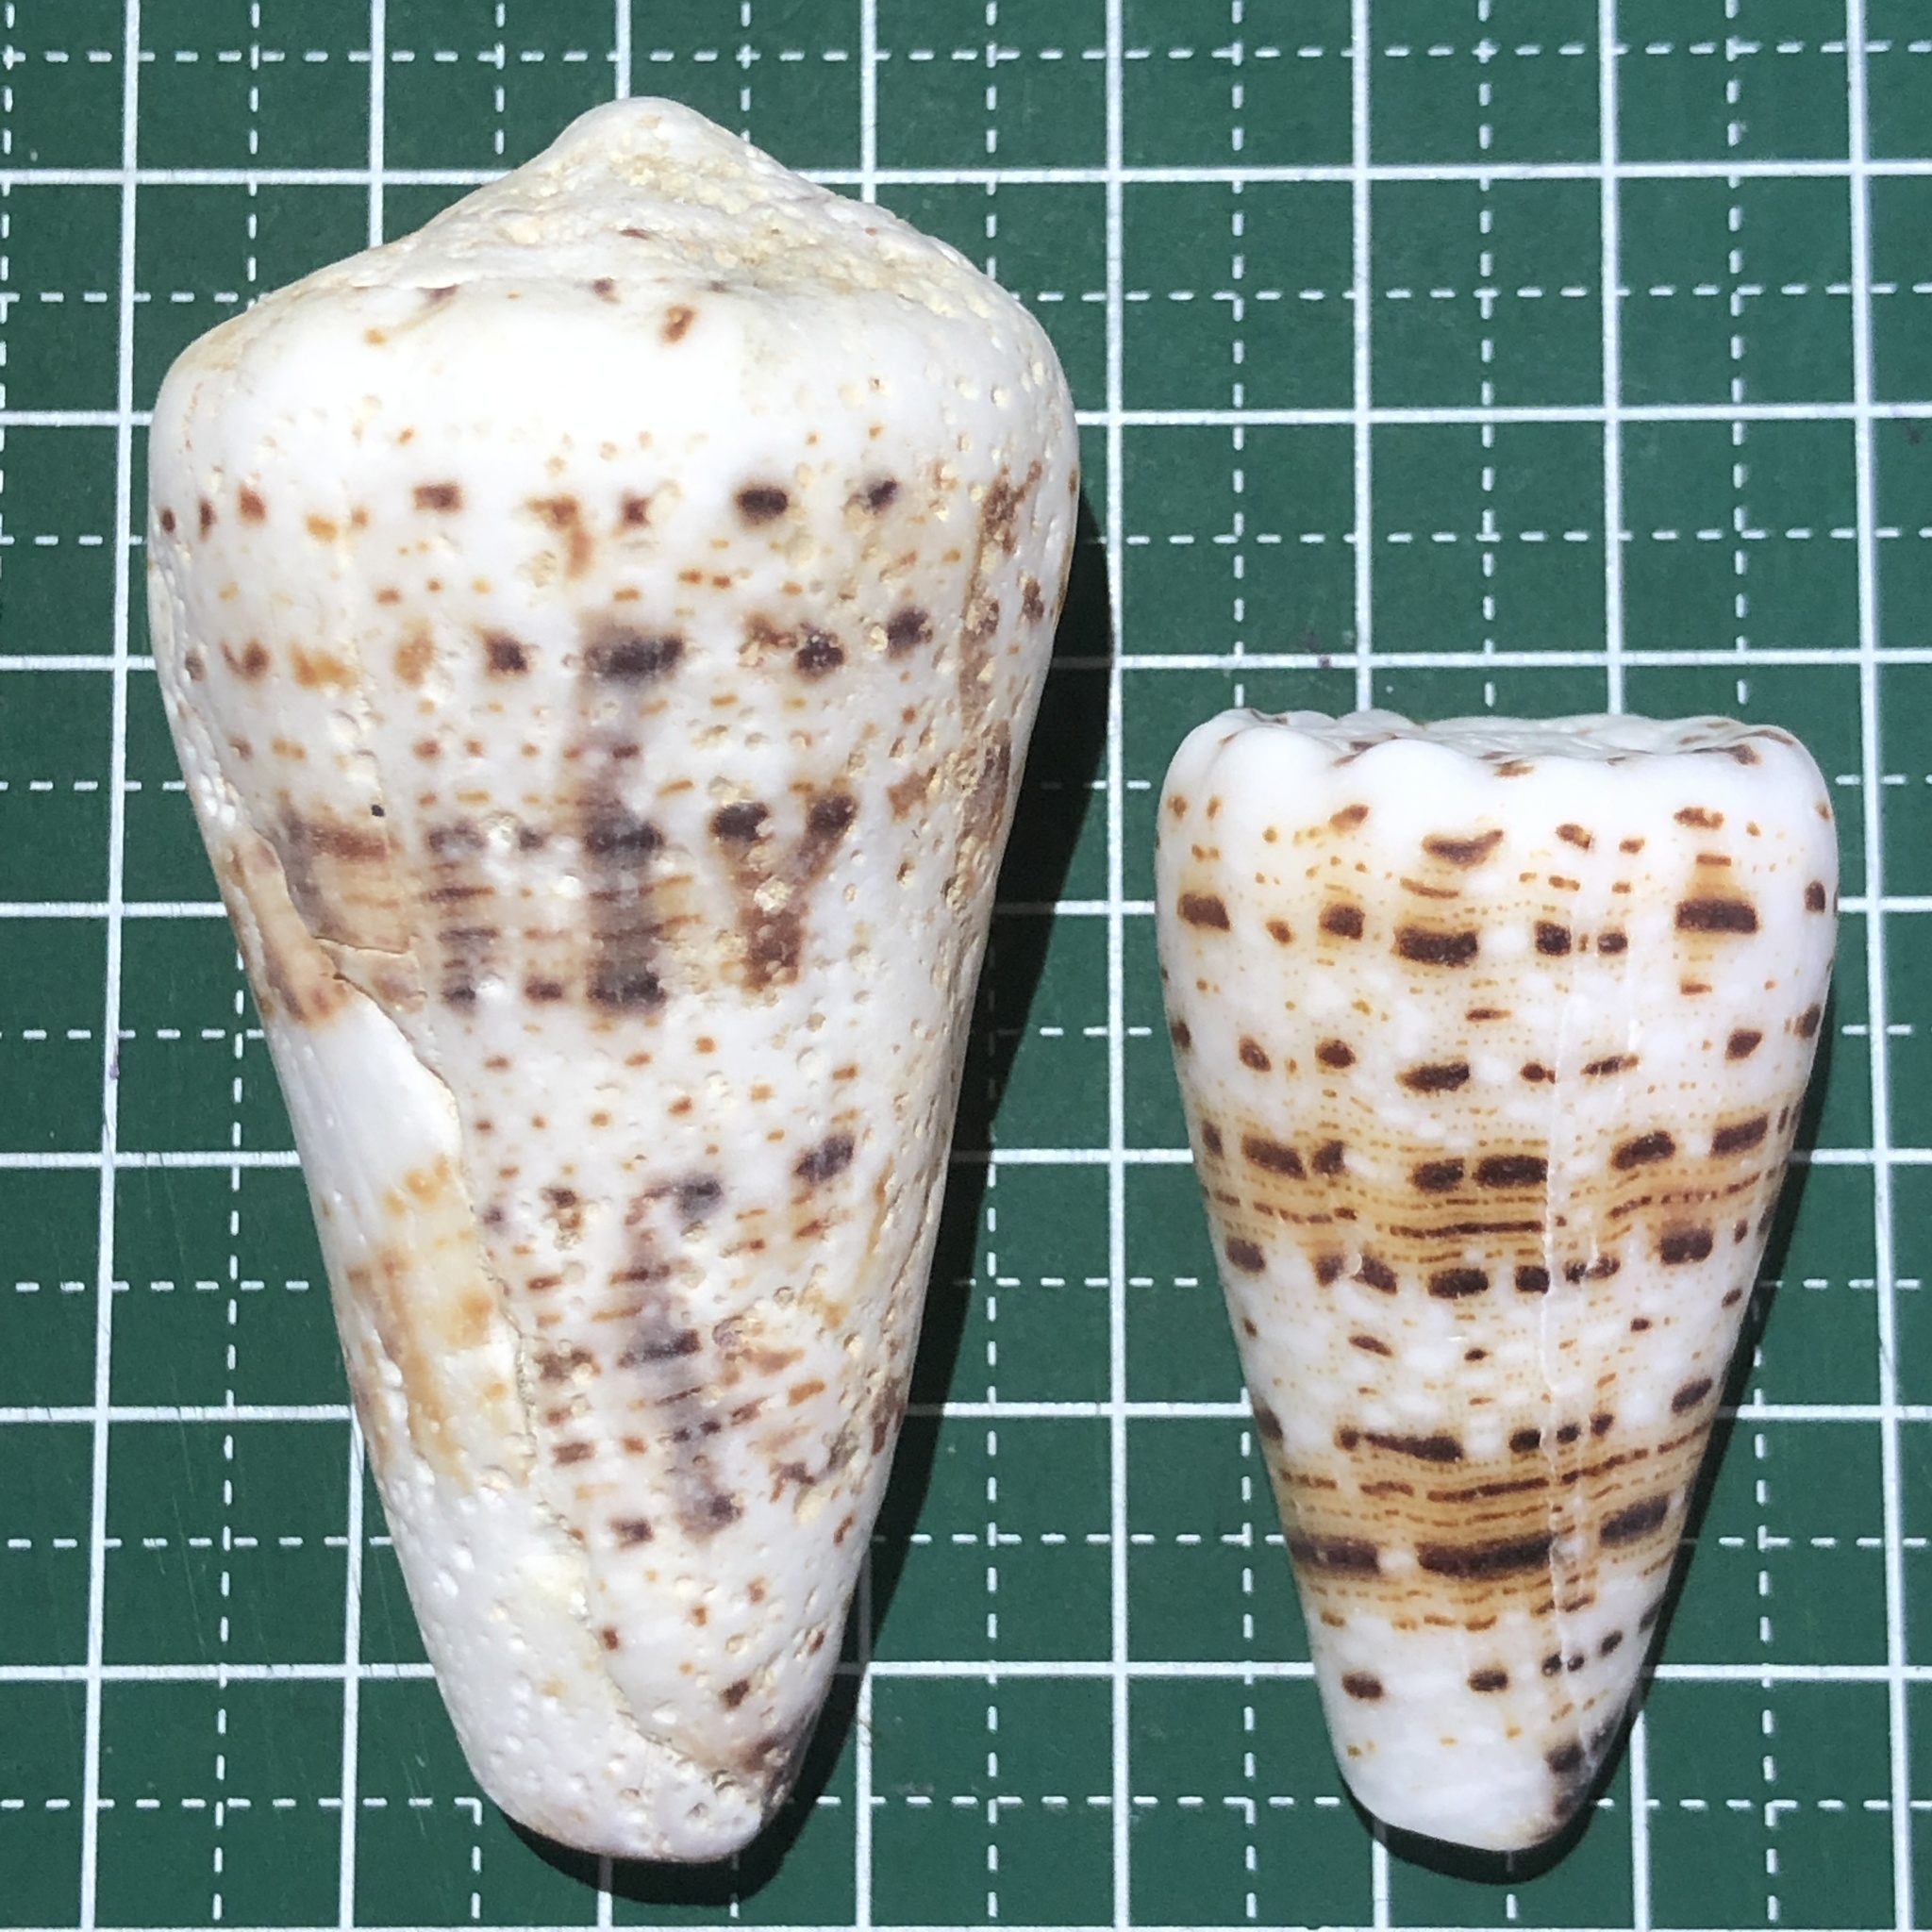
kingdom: Animalia
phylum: Mollusca
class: Gastropoda
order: Neogastropoda
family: Conidae
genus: Conus
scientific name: Conus imperialis
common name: Imperial cone
